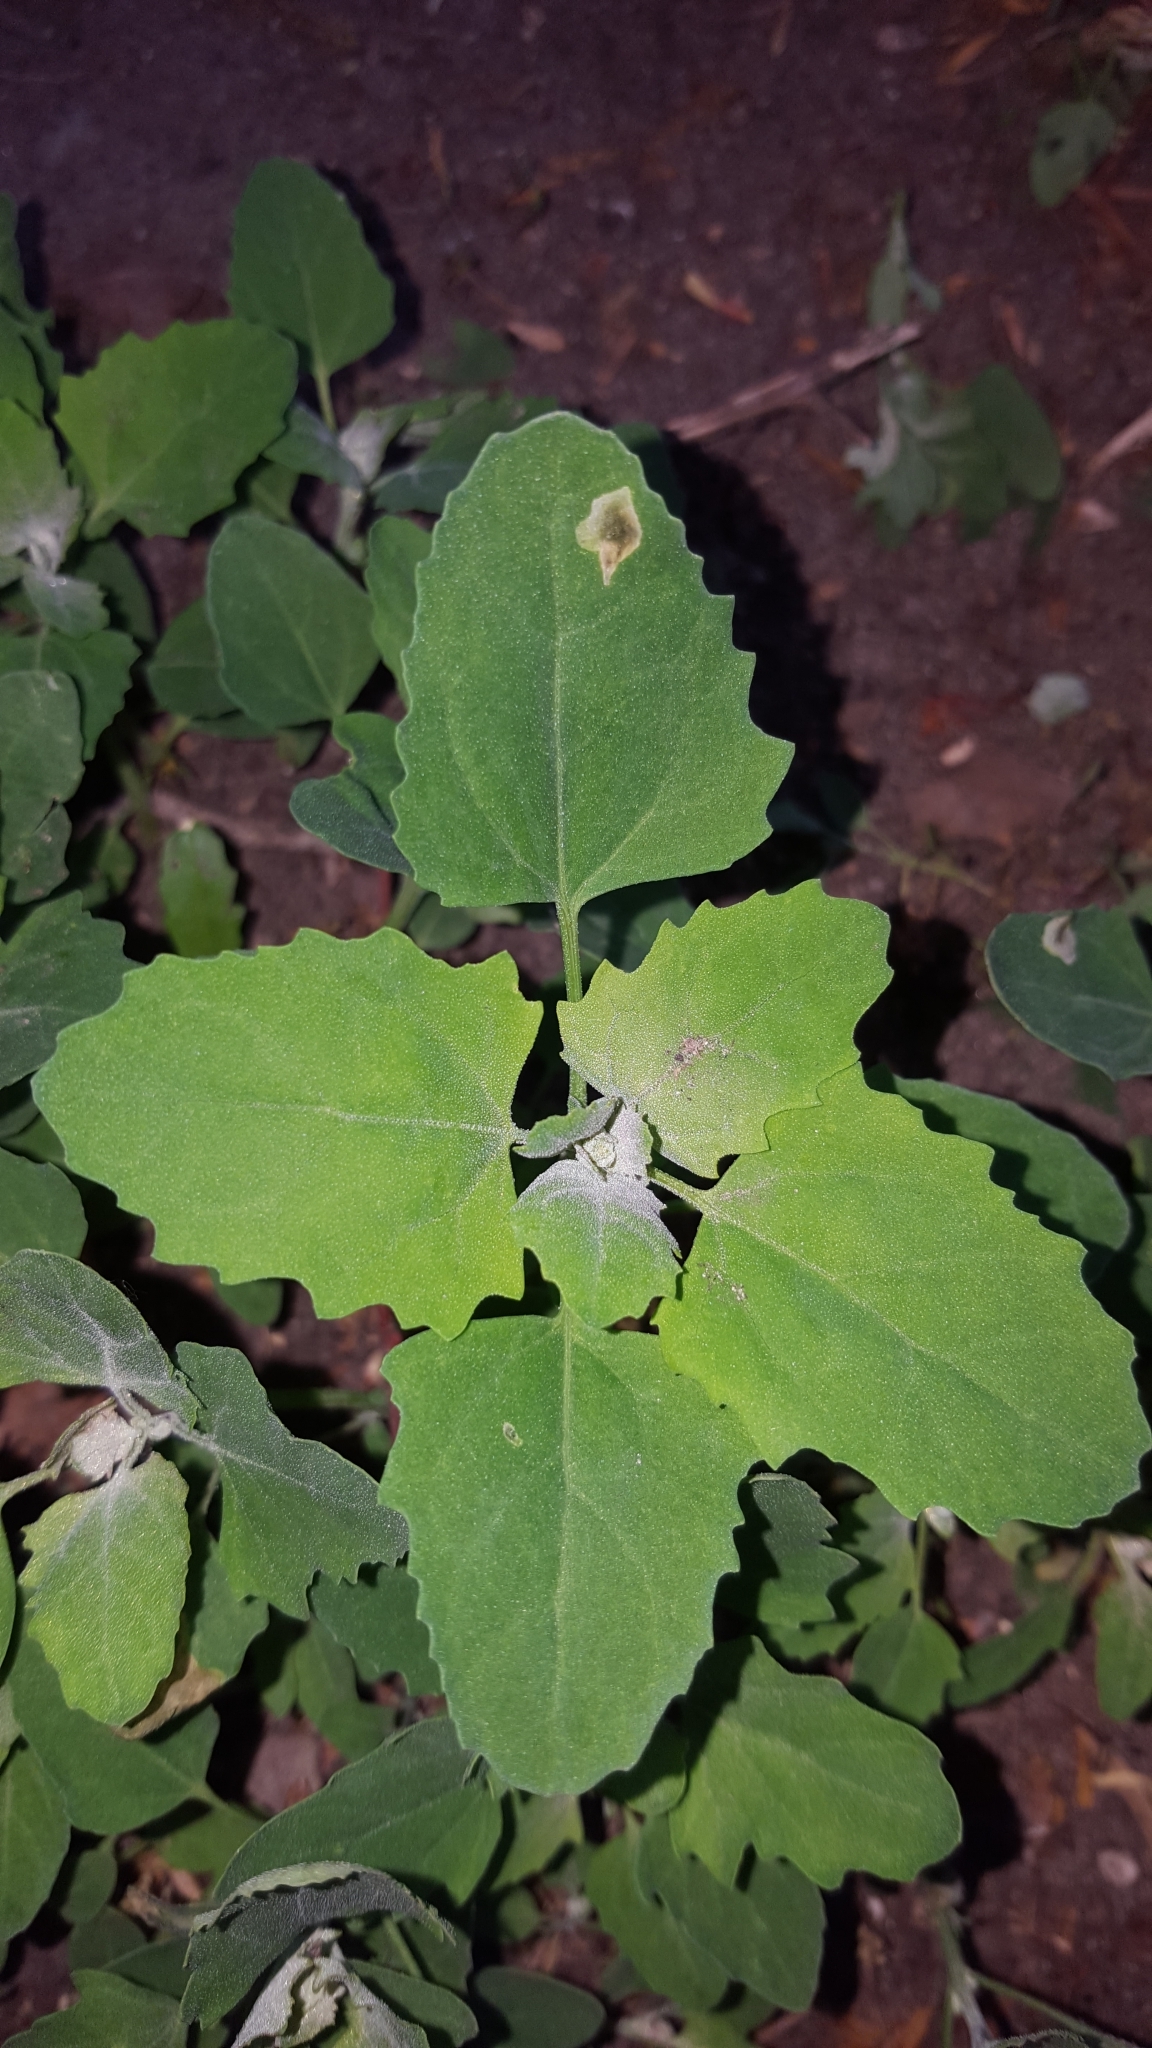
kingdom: Plantae
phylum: Tracheophyta
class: Magnoliopsida
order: Caryophyllales
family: Amaranthaceae
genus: Chenopodium
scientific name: Chenopodium album
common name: Fat-hen
